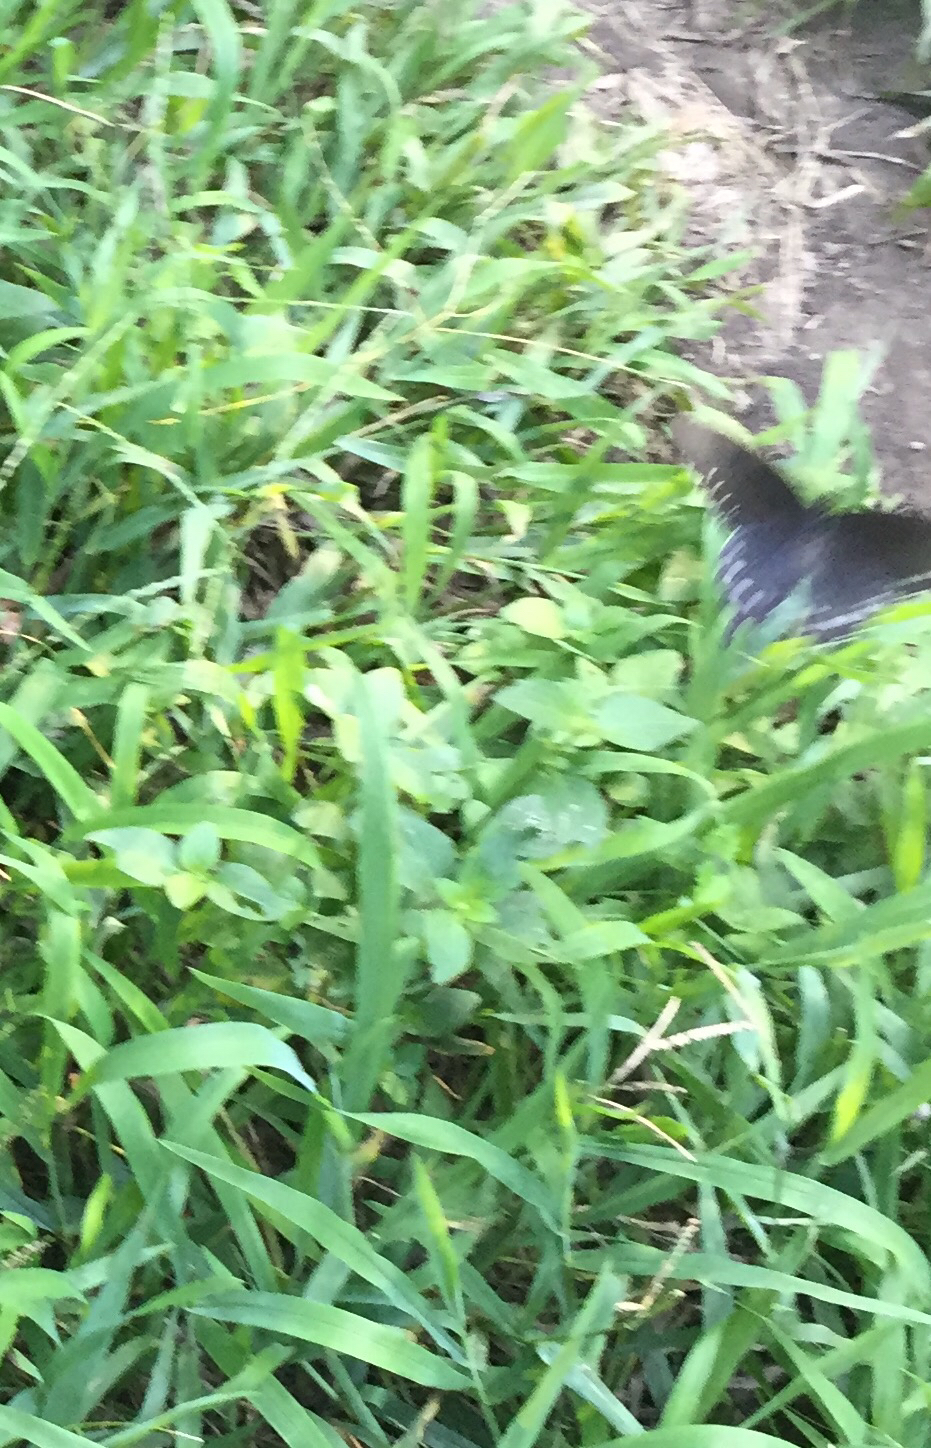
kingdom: Animalia
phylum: Arthropoda
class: Insecta
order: Lepidoptera
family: Papilionidae
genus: Battus
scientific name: Battus philenor
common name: Pipevine swallowtail
